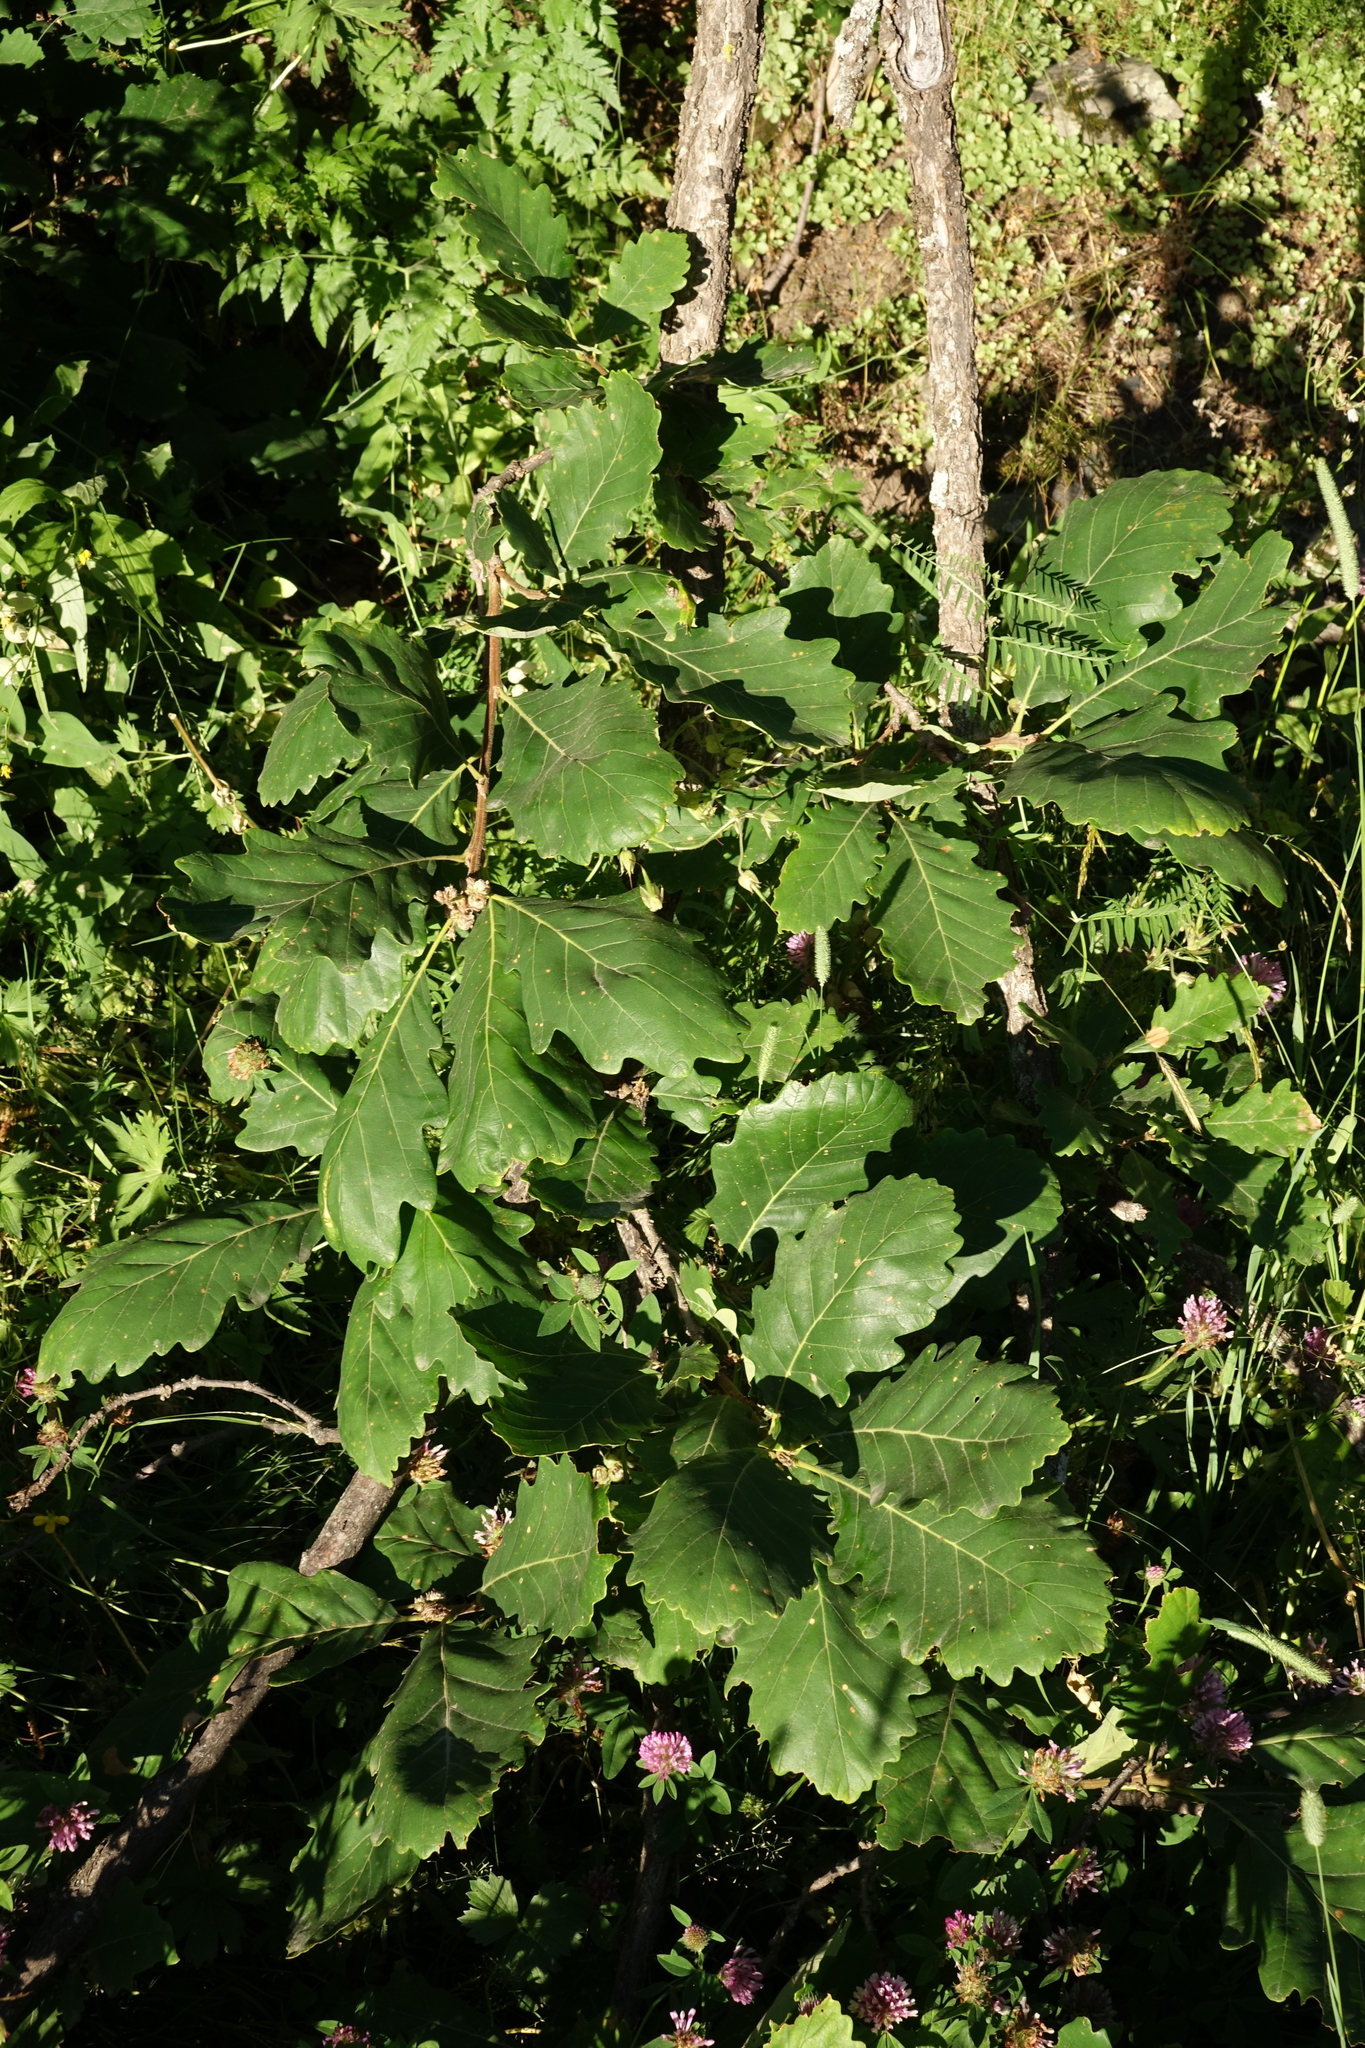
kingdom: Plantae
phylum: Tracheophyta
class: Magnoliopsida
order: Fagales
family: Fagaceae
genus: Quercus
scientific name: Quercus macranthera
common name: Caucasian oak
